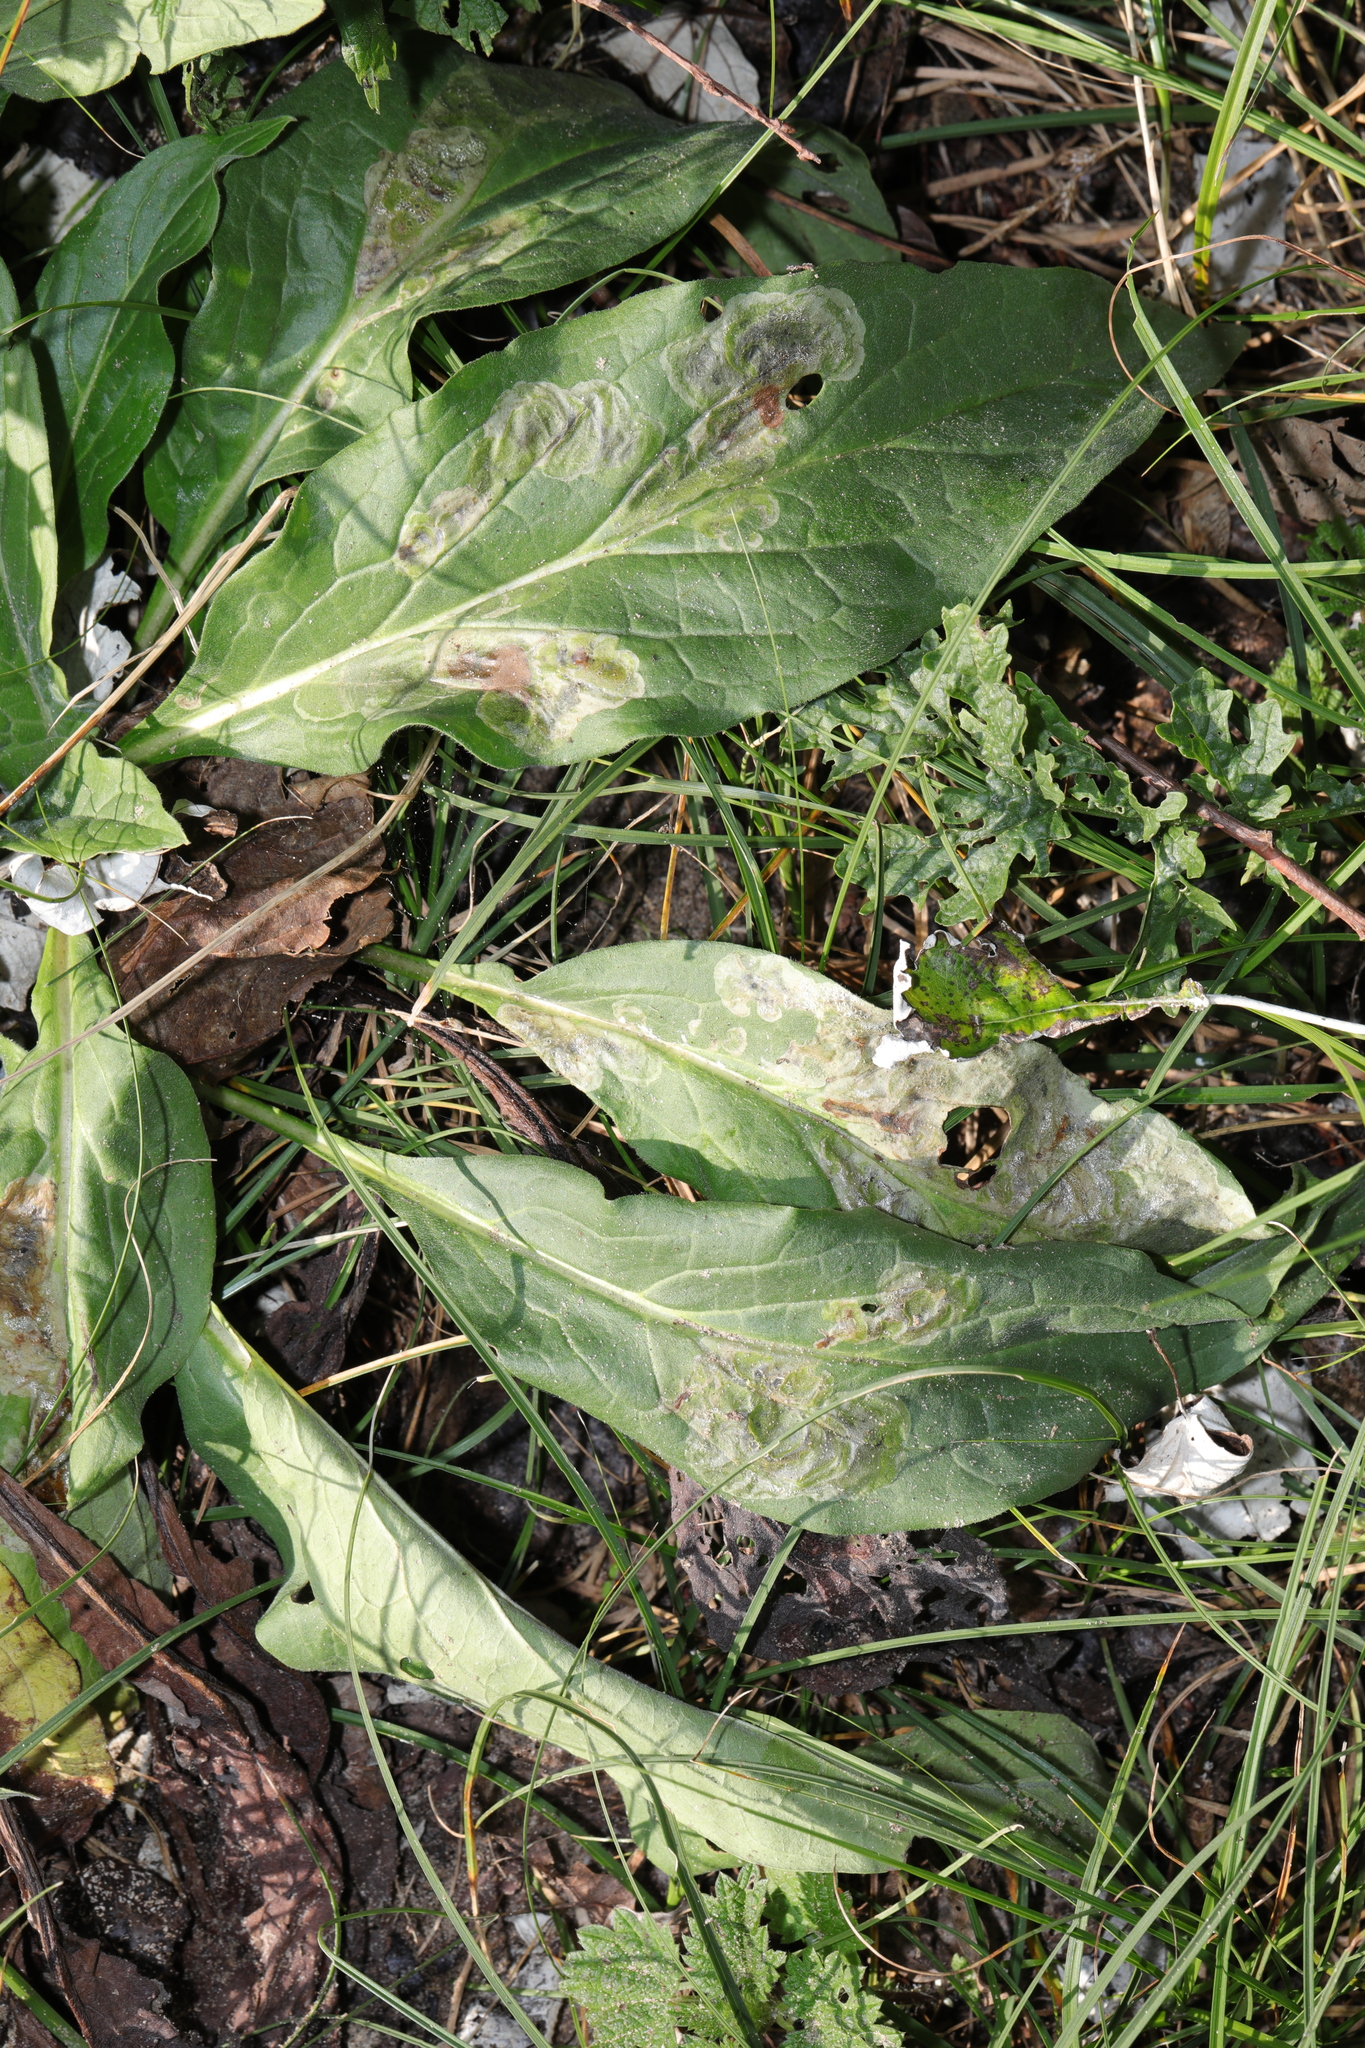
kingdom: Plantae
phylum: Tracheophyta
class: Magnoliopsida
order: Boraginales
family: Boraginaceae
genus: Cynoglossum
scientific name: Cynoglossum officinale
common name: Hound's-tongue
